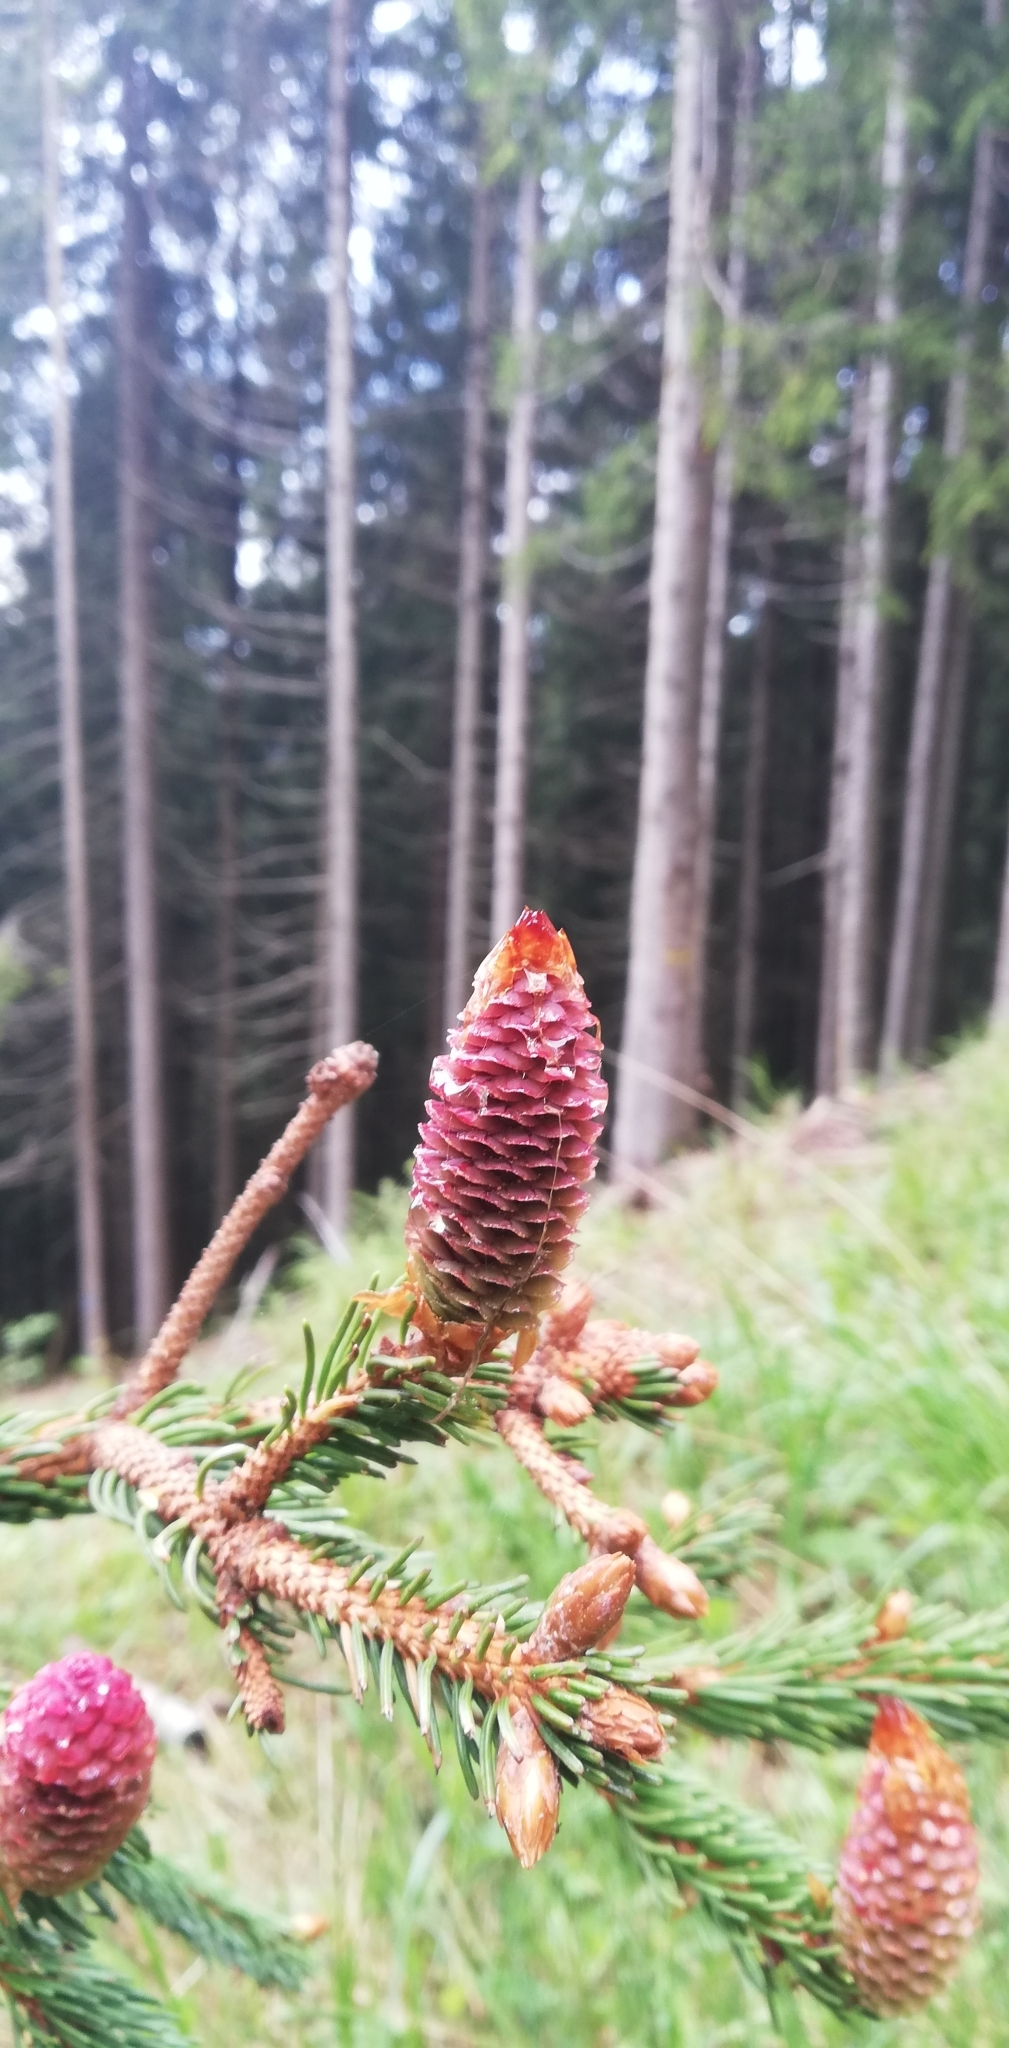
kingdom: Plantae
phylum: Tracheophyta
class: Pinopsida
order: Pinales
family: Pinaceae
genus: Picea
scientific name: Picea abies
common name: Norway spruce
